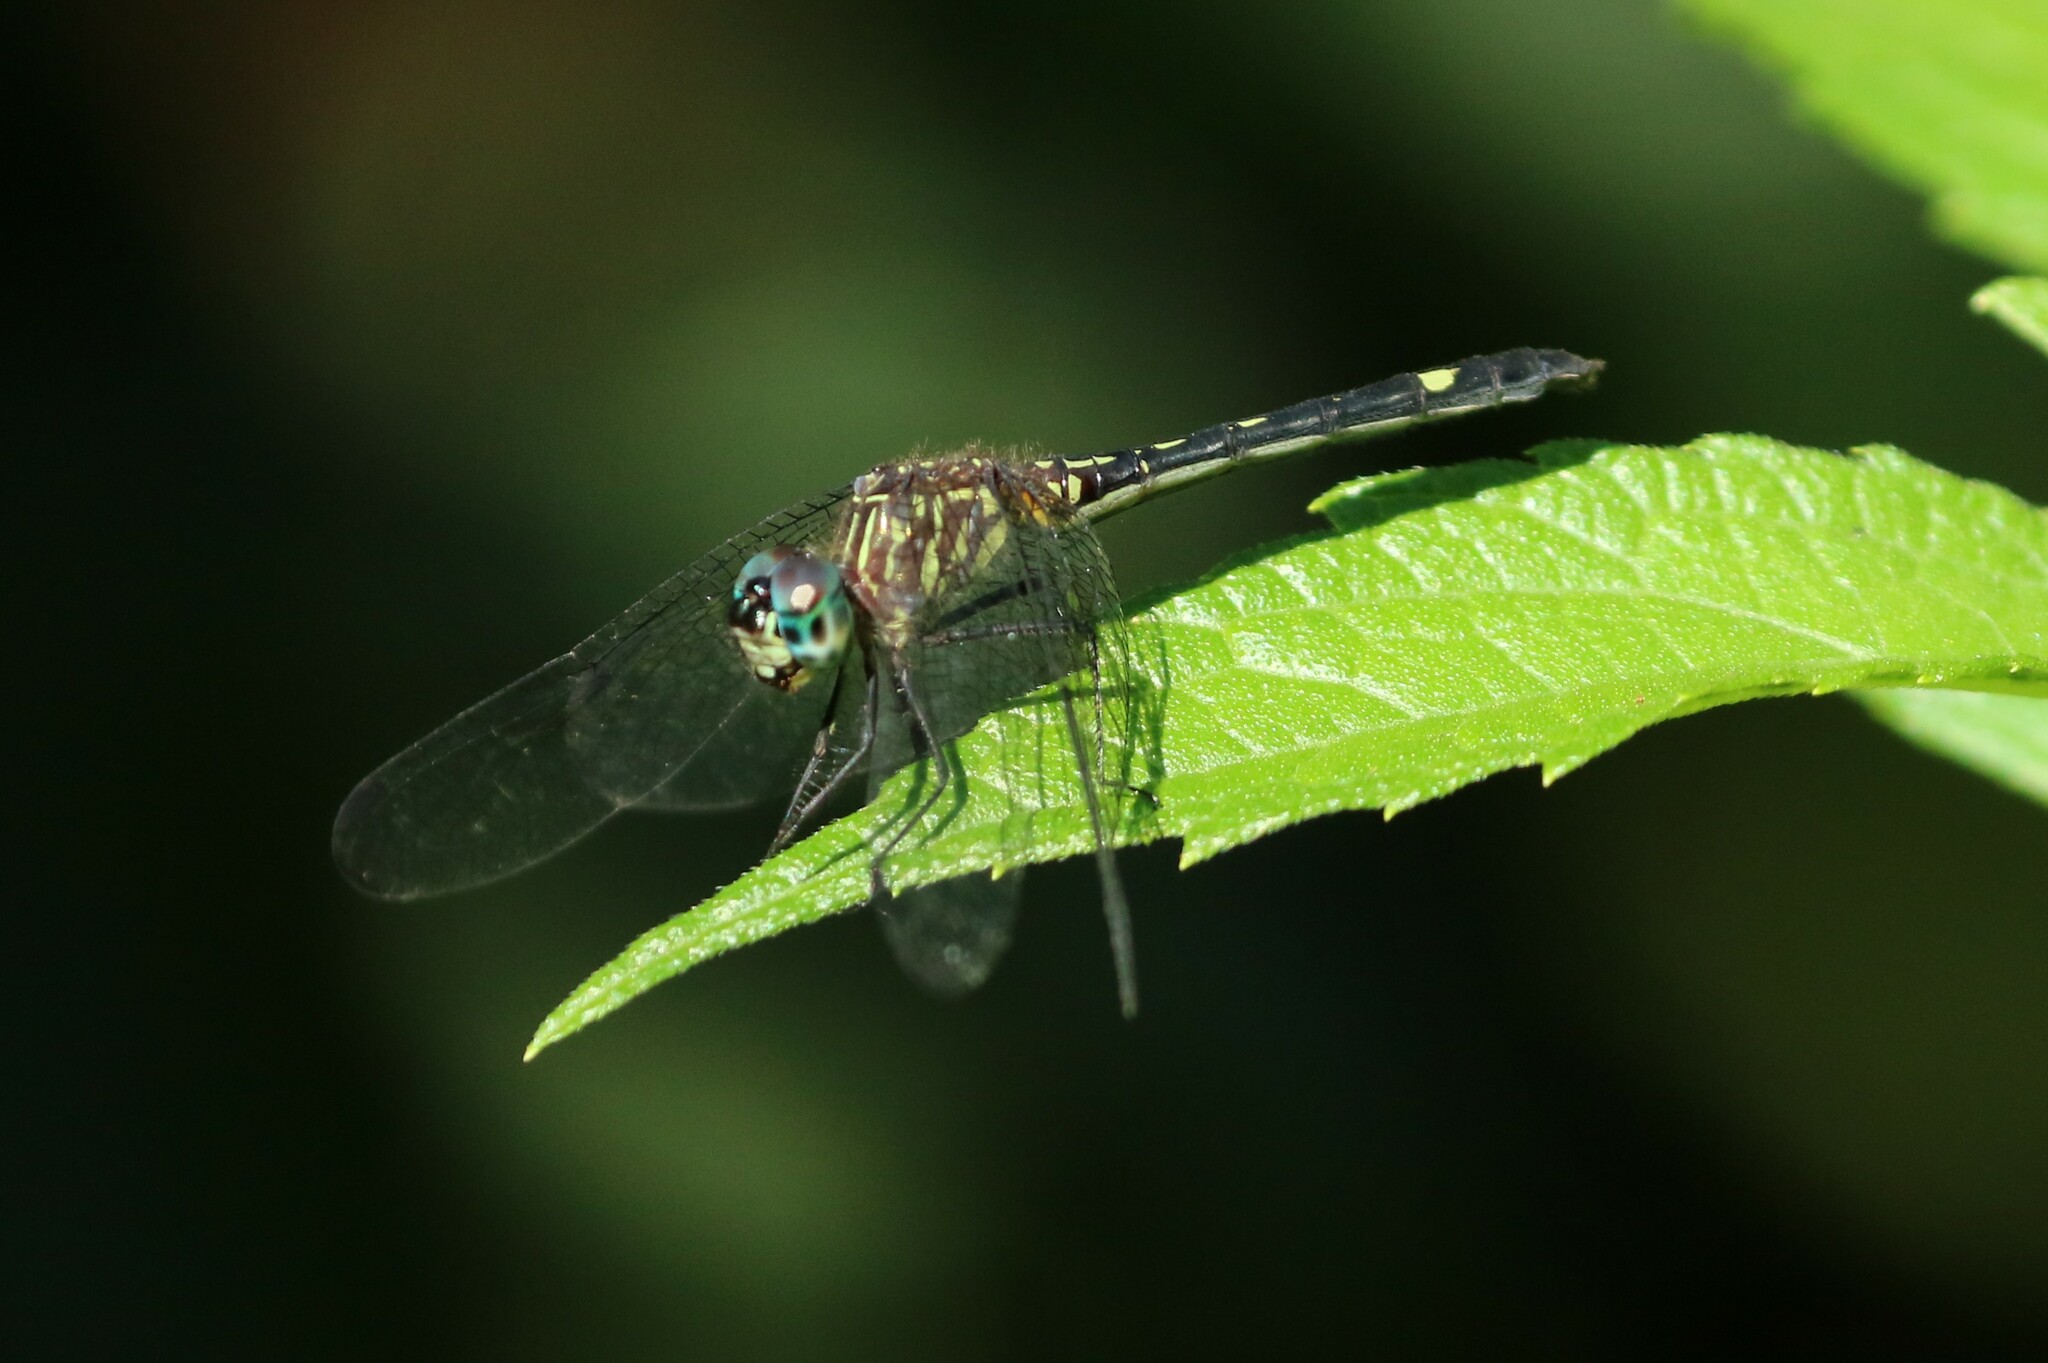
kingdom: Animalia
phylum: Arthropoda
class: Insecta
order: Odonata
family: Libellulidae
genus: Dythemis
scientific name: Dythemis nigra
